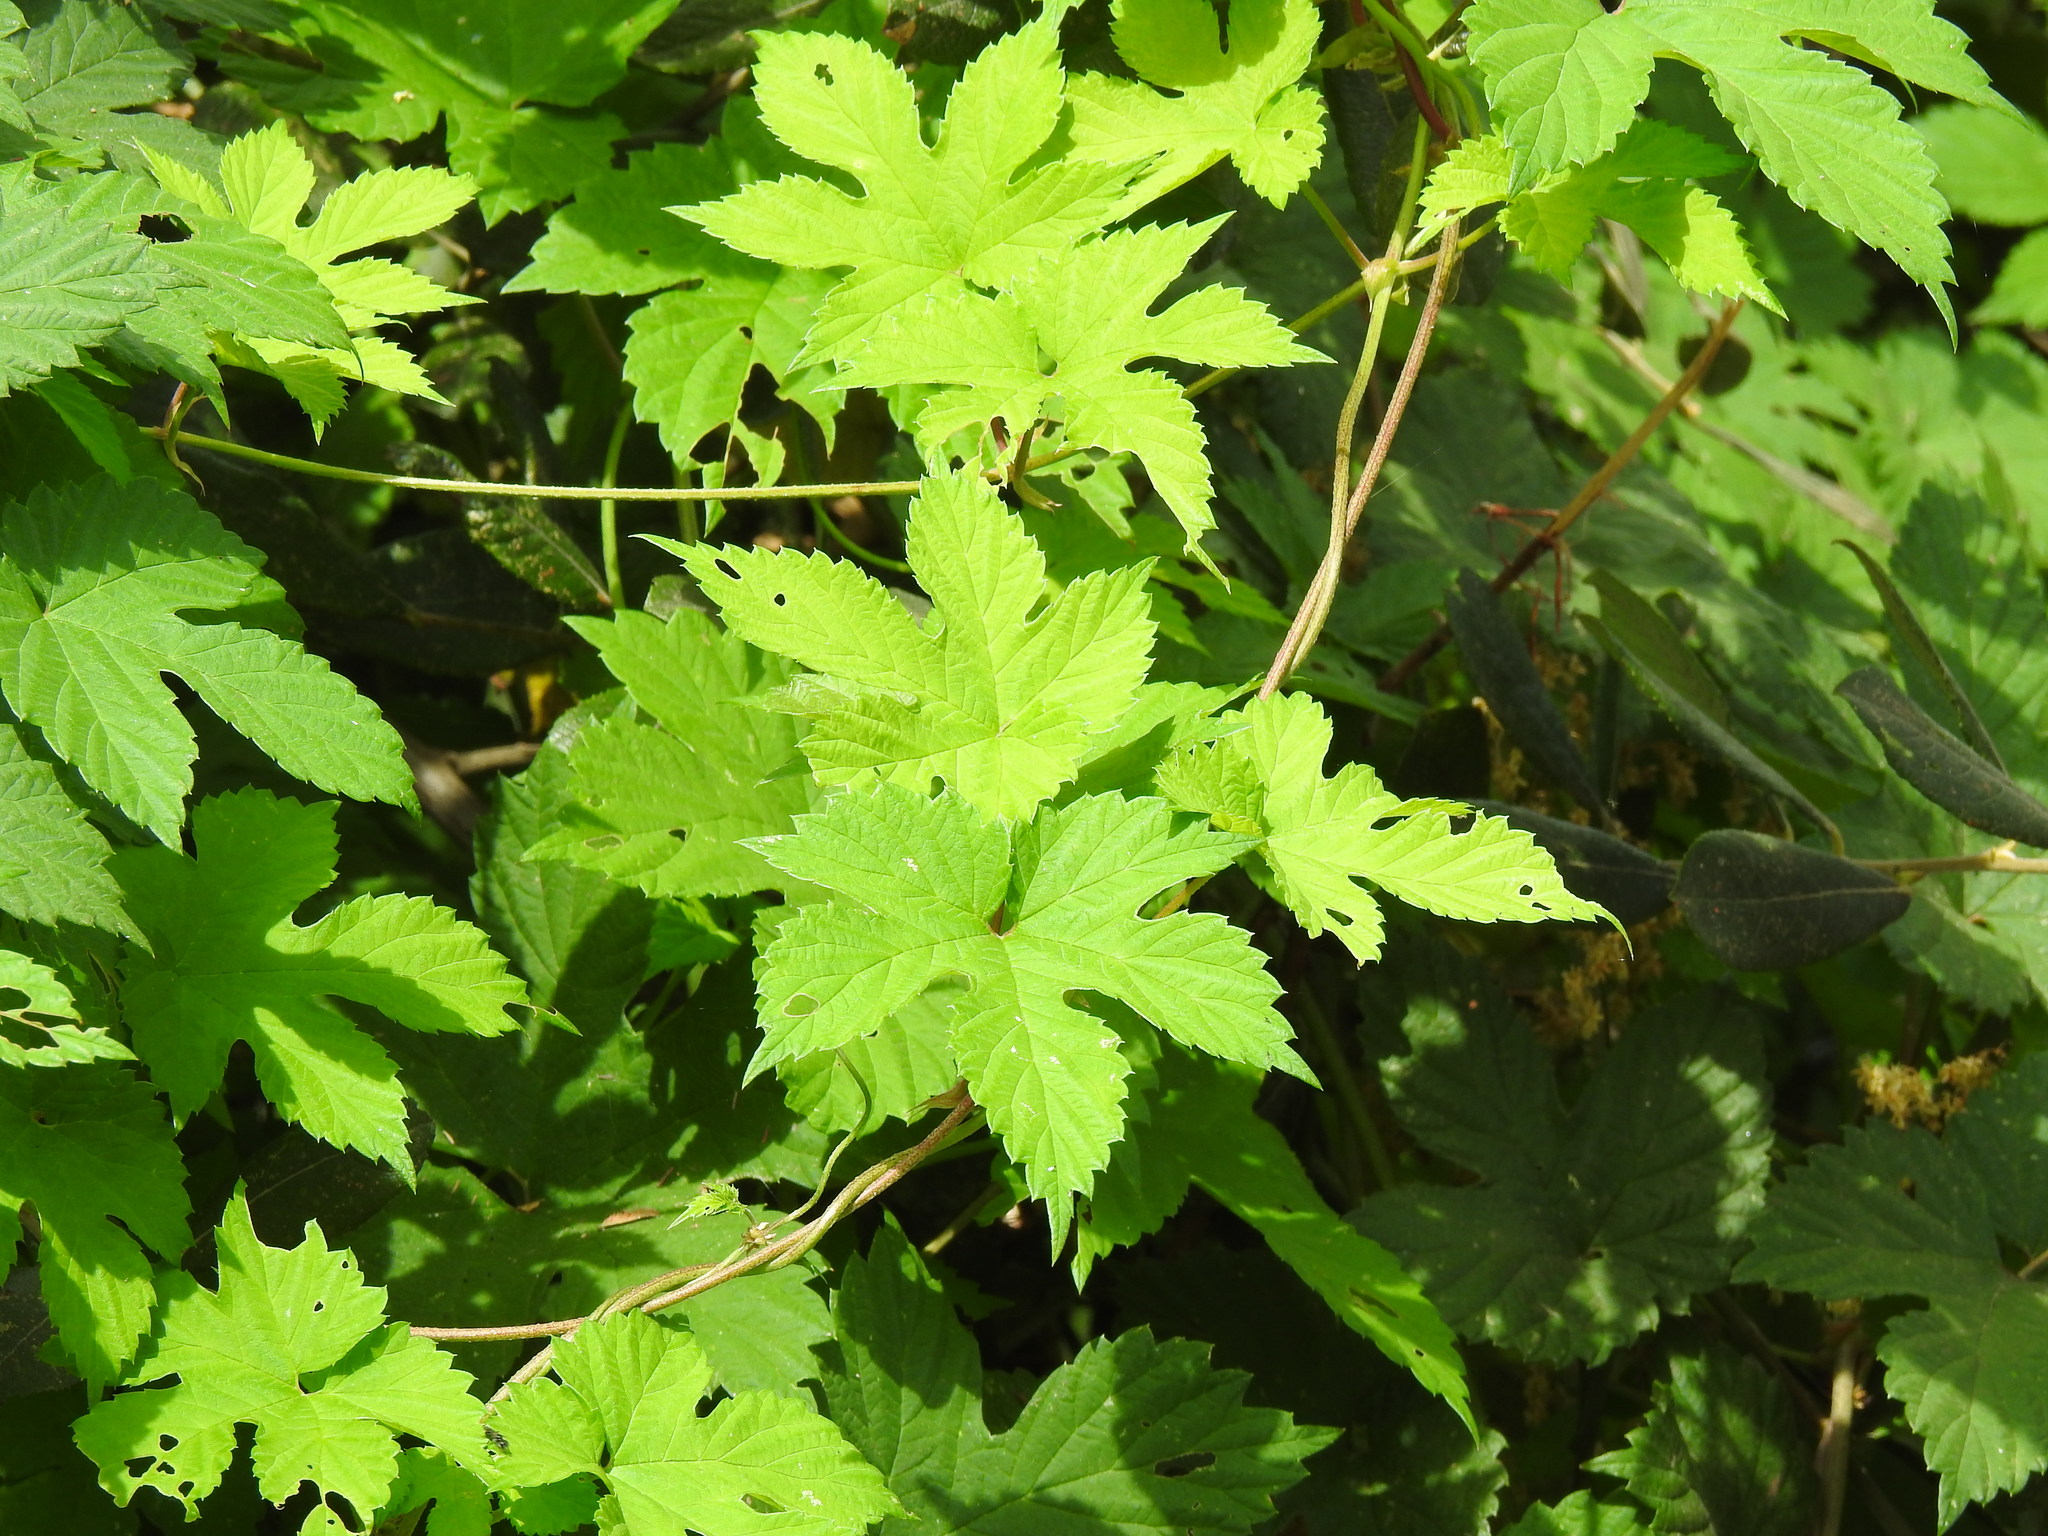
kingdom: Plantae
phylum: Tracheophyta
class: Magnoliopsida
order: Rosales
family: Cannabaceae
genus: Humulus
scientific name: Humulus lupulus
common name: Hop
